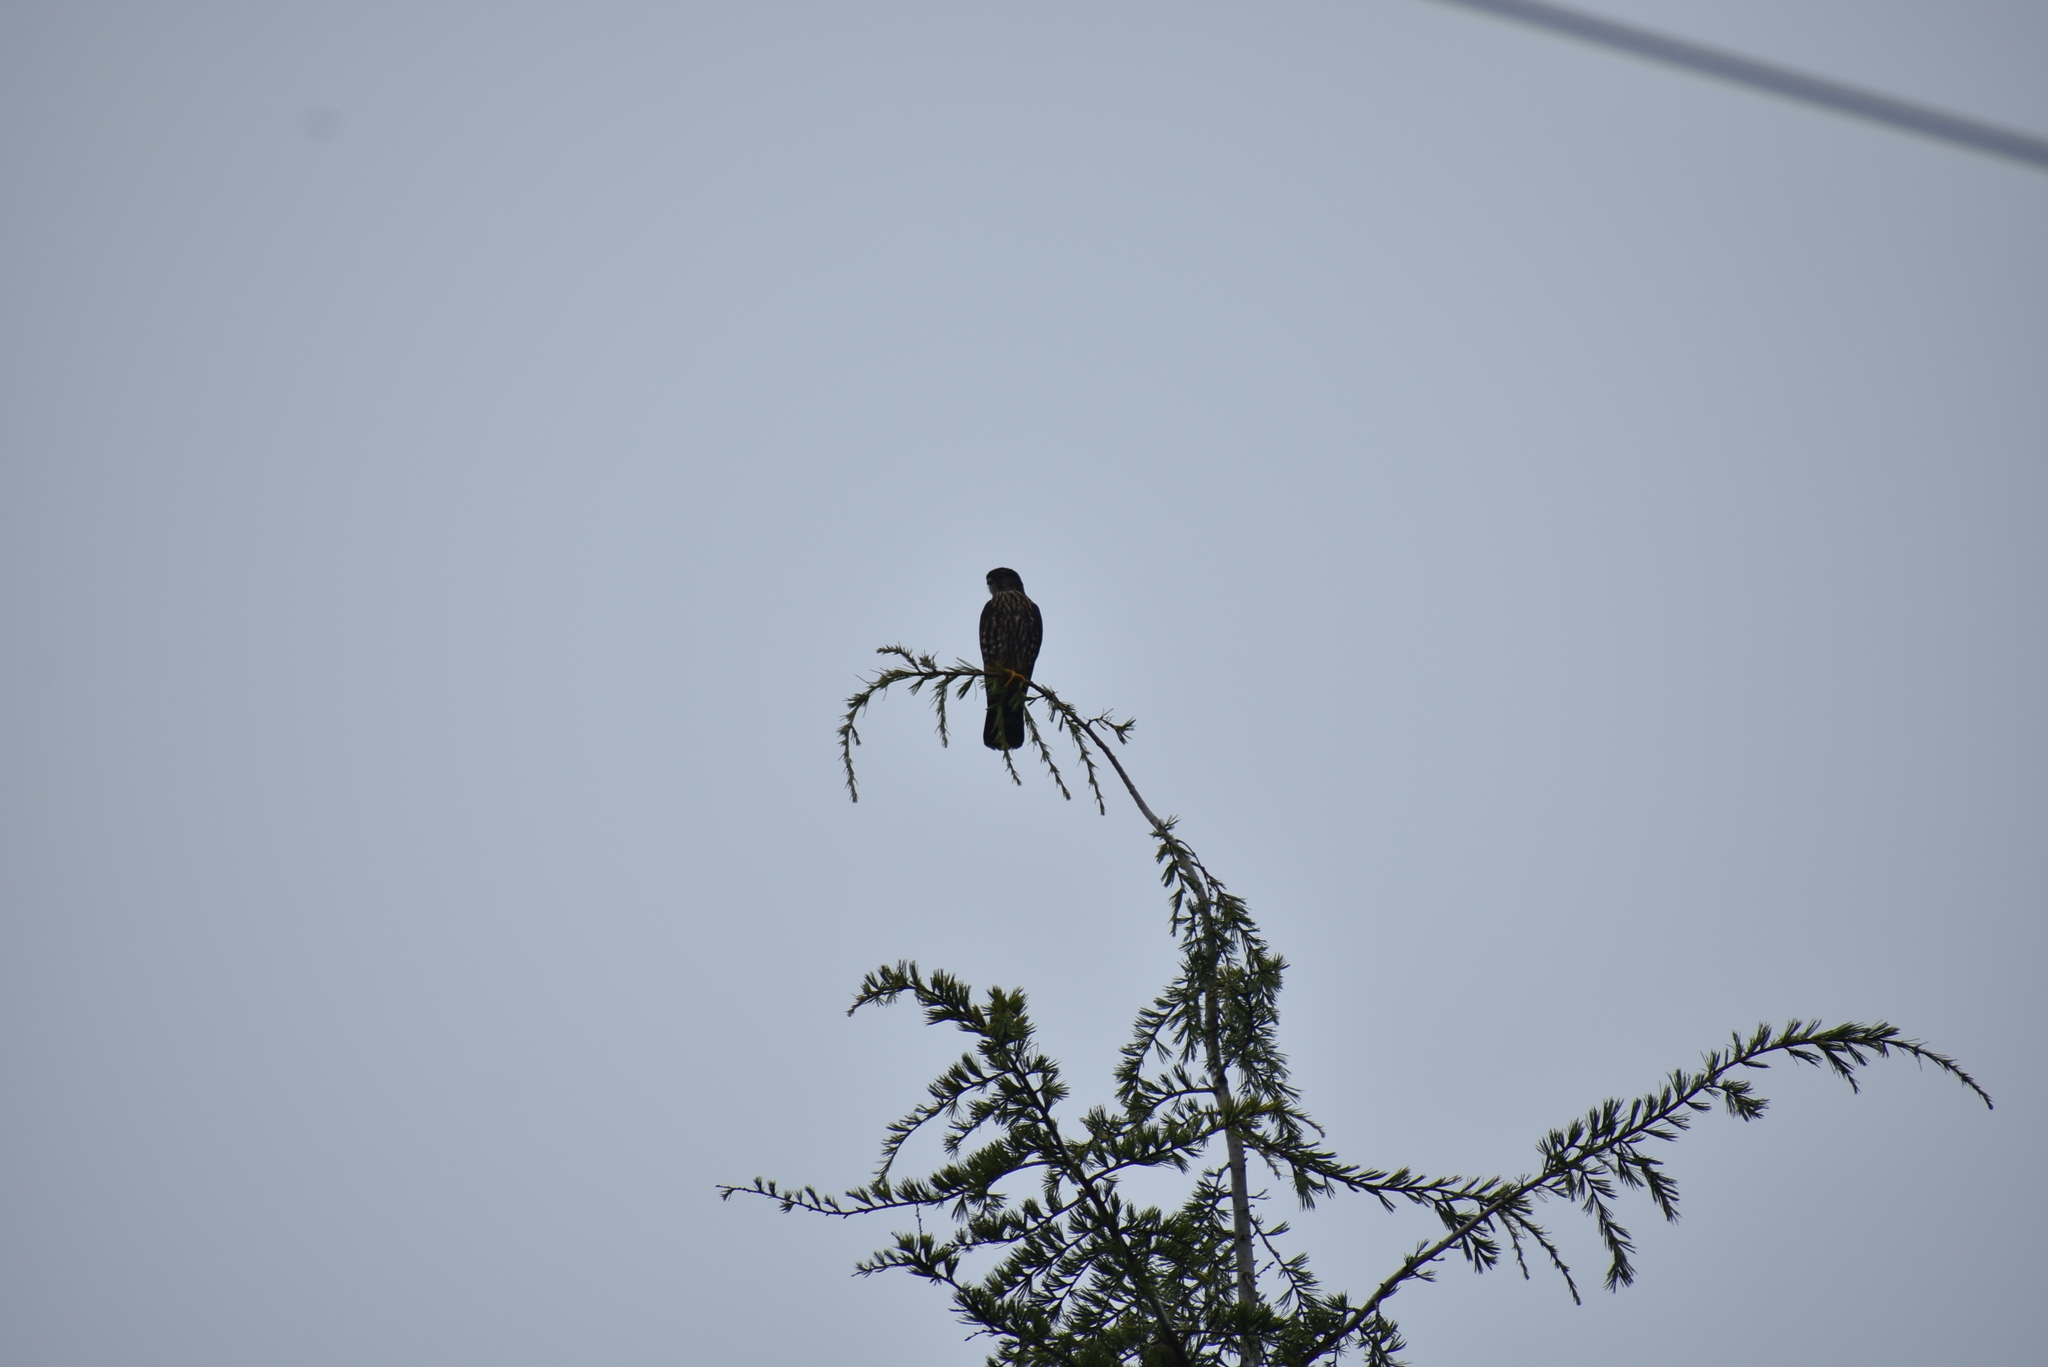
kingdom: Animalia
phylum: Chordata
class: Aves
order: Falconiformes
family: Falconidae
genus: Falco
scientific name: Falco columbarius
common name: Merlin
